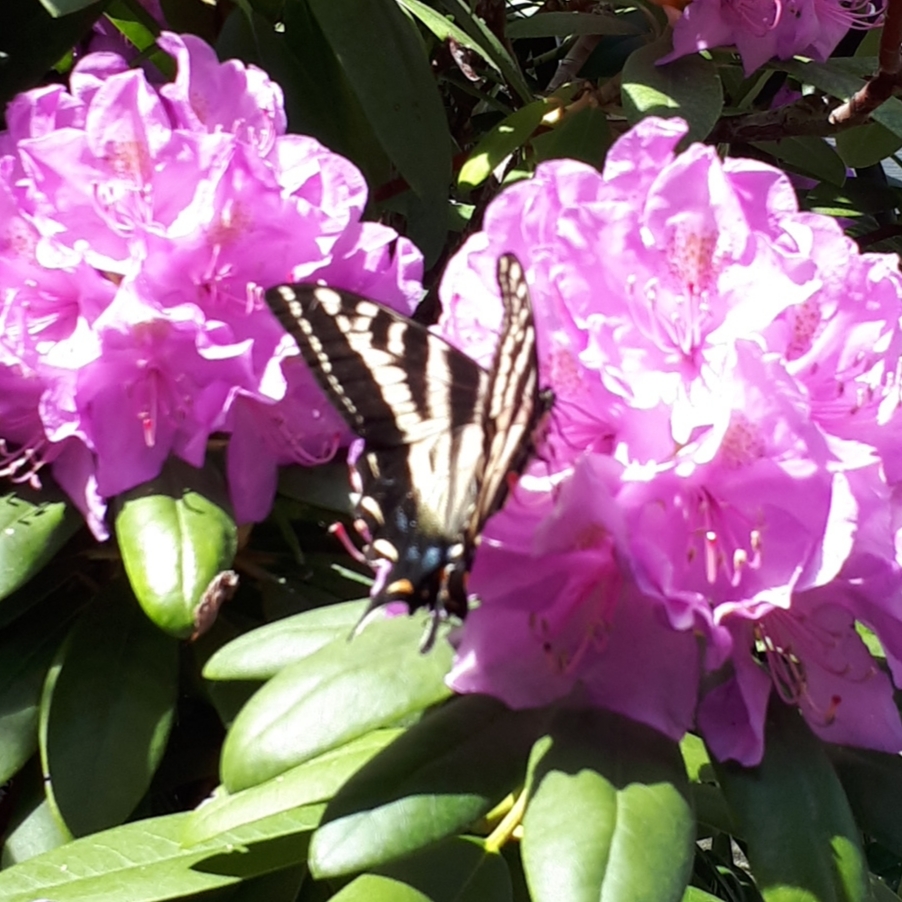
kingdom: Animalia
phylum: Arthropoda
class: Insecta
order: Lepidoptera
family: Papilionidae
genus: Papilio
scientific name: Papilio rutulus
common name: Western tiger swallowtail
